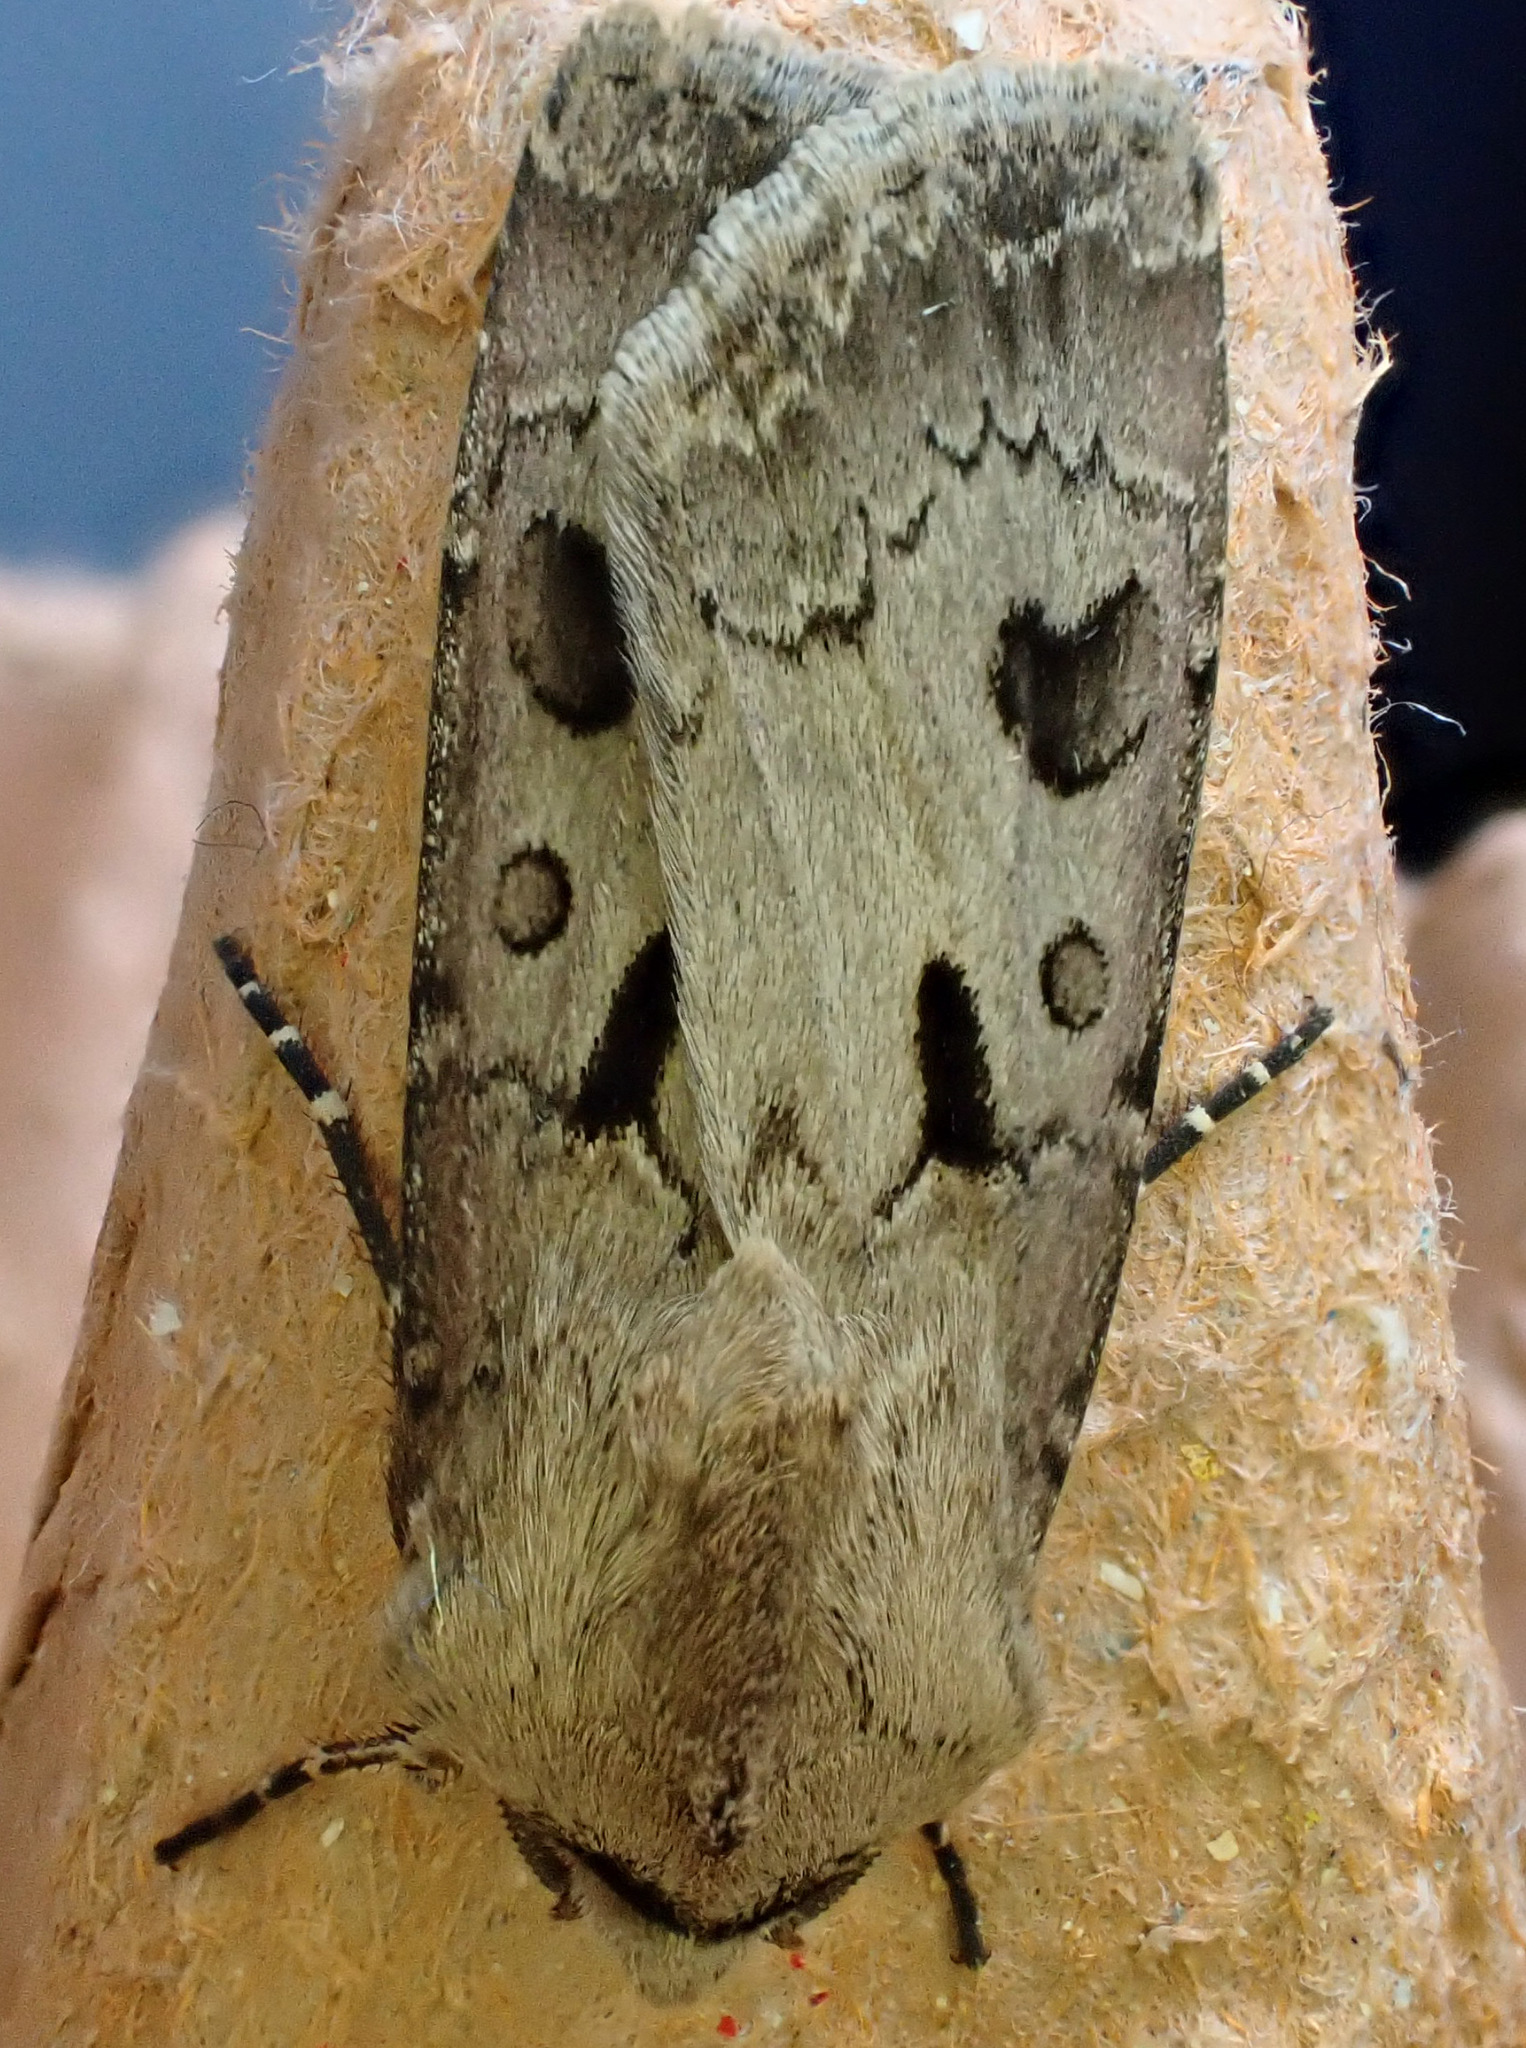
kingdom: Animalia
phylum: Arthropoda
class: Insecta
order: Lepidoptera
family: Noctuidae
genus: Agrotis
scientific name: Agrotis exclamationis
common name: Heart and dart
